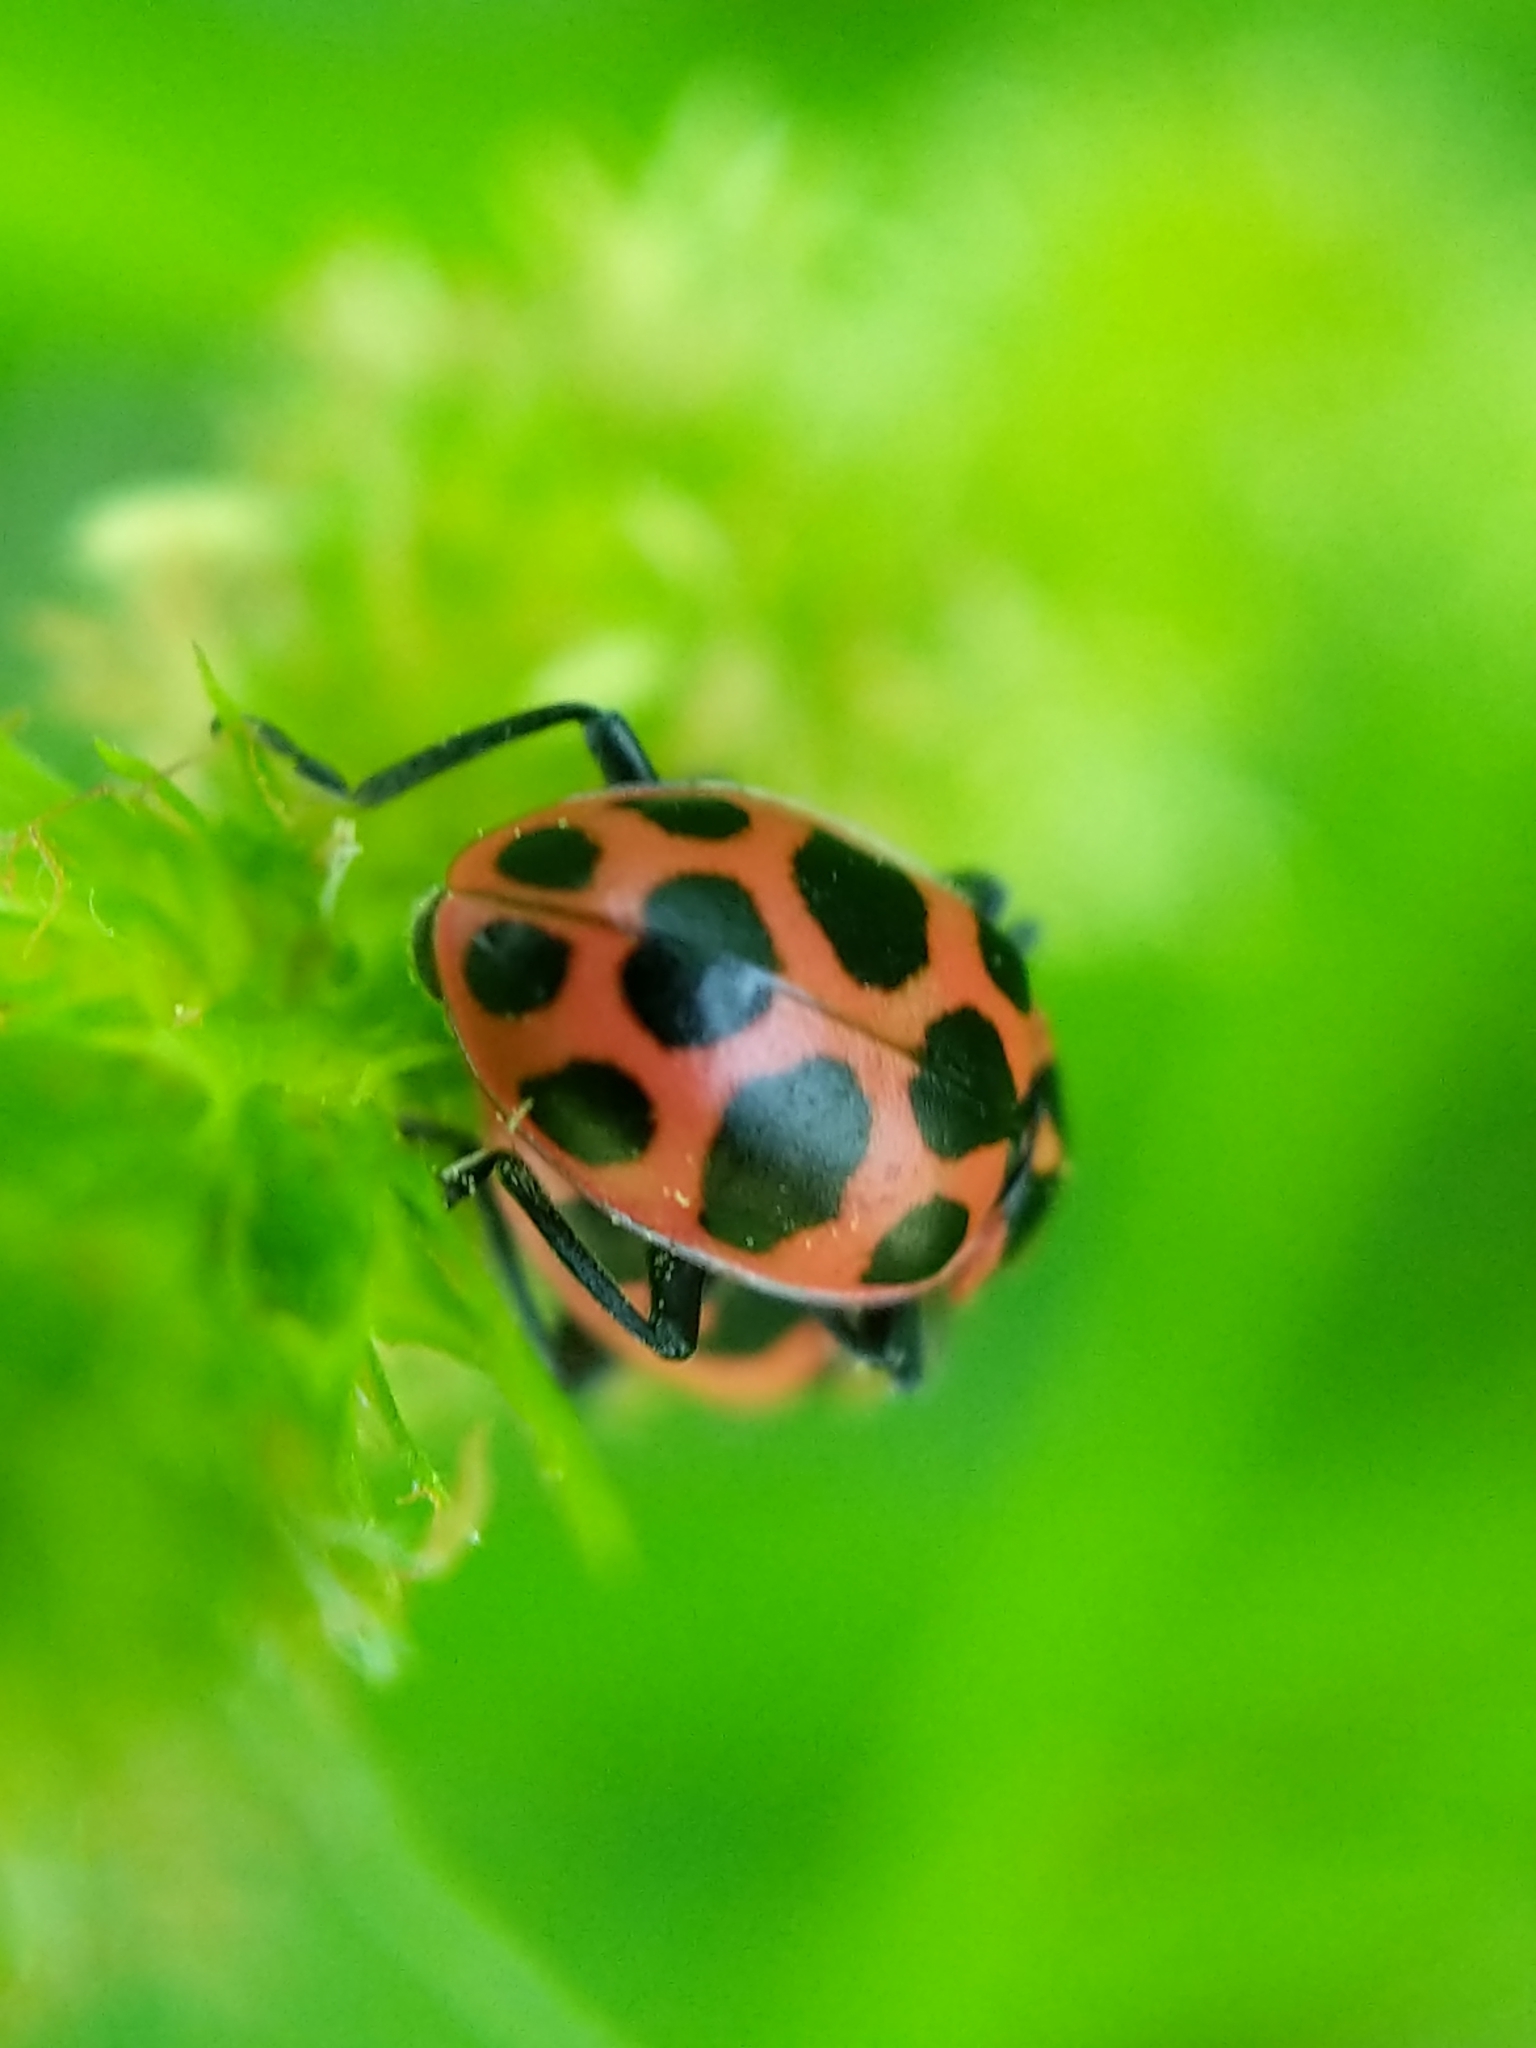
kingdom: Animalia
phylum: Arthropoda
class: Insecta
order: Coleoptera
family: Coccinellidae
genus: Coleomegilla
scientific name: Coleomegilla maculata
